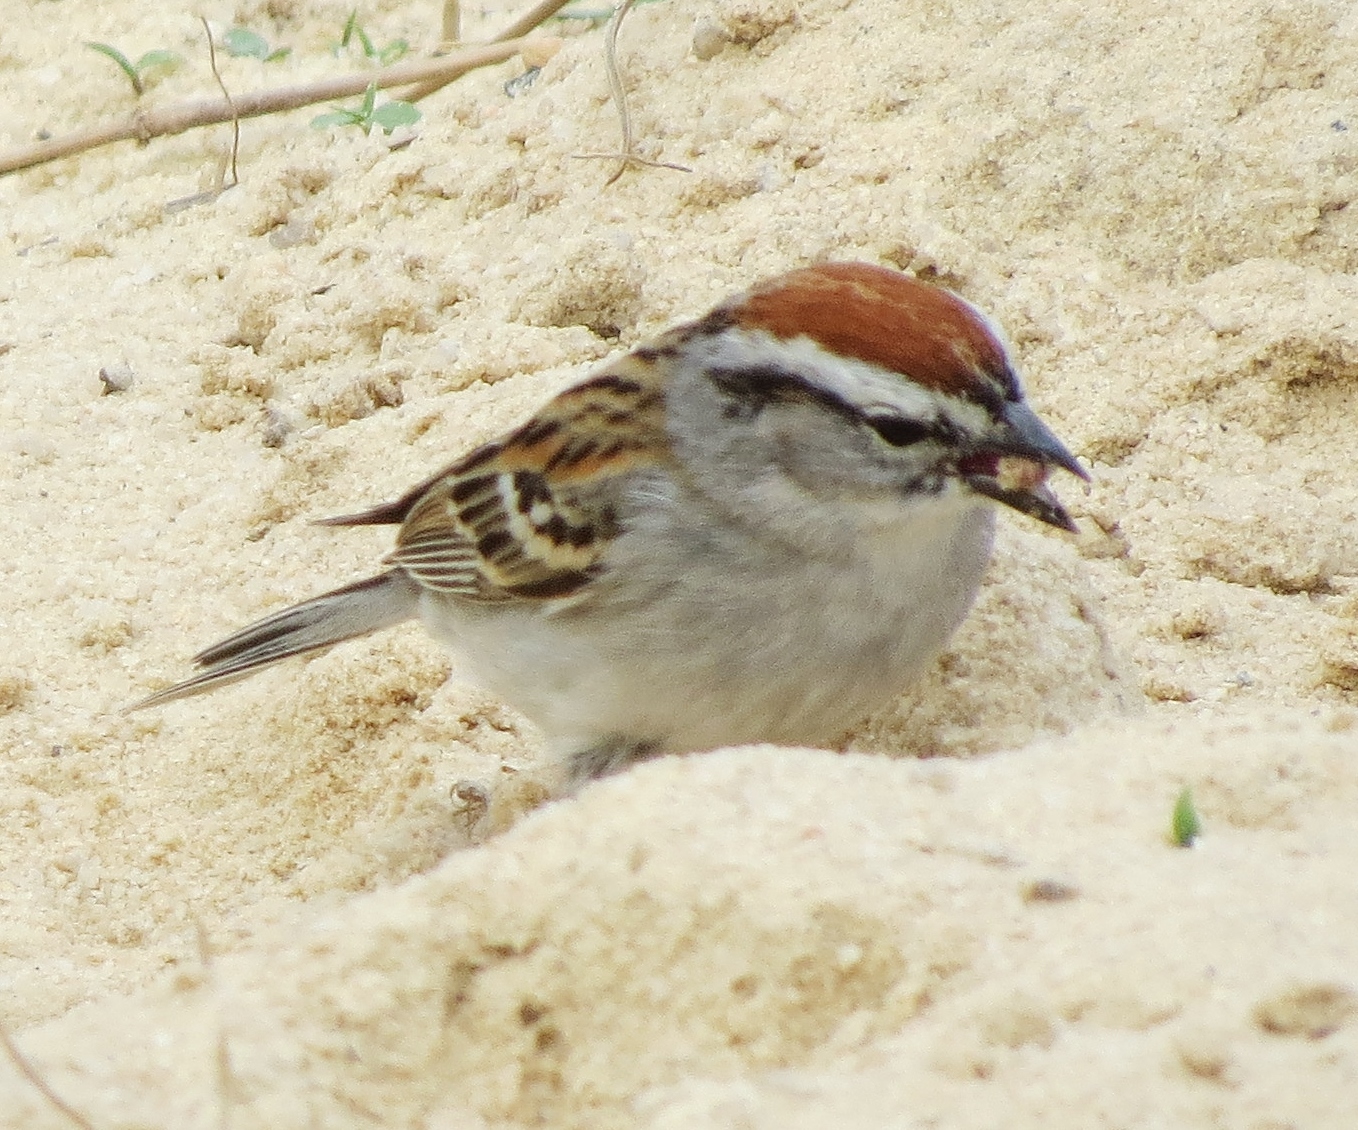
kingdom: Animalia
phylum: Chordata
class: Aves
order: Passeriformes
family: Passerellidae
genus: Spizella
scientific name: Spizella passerina
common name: Chipping sparrow
